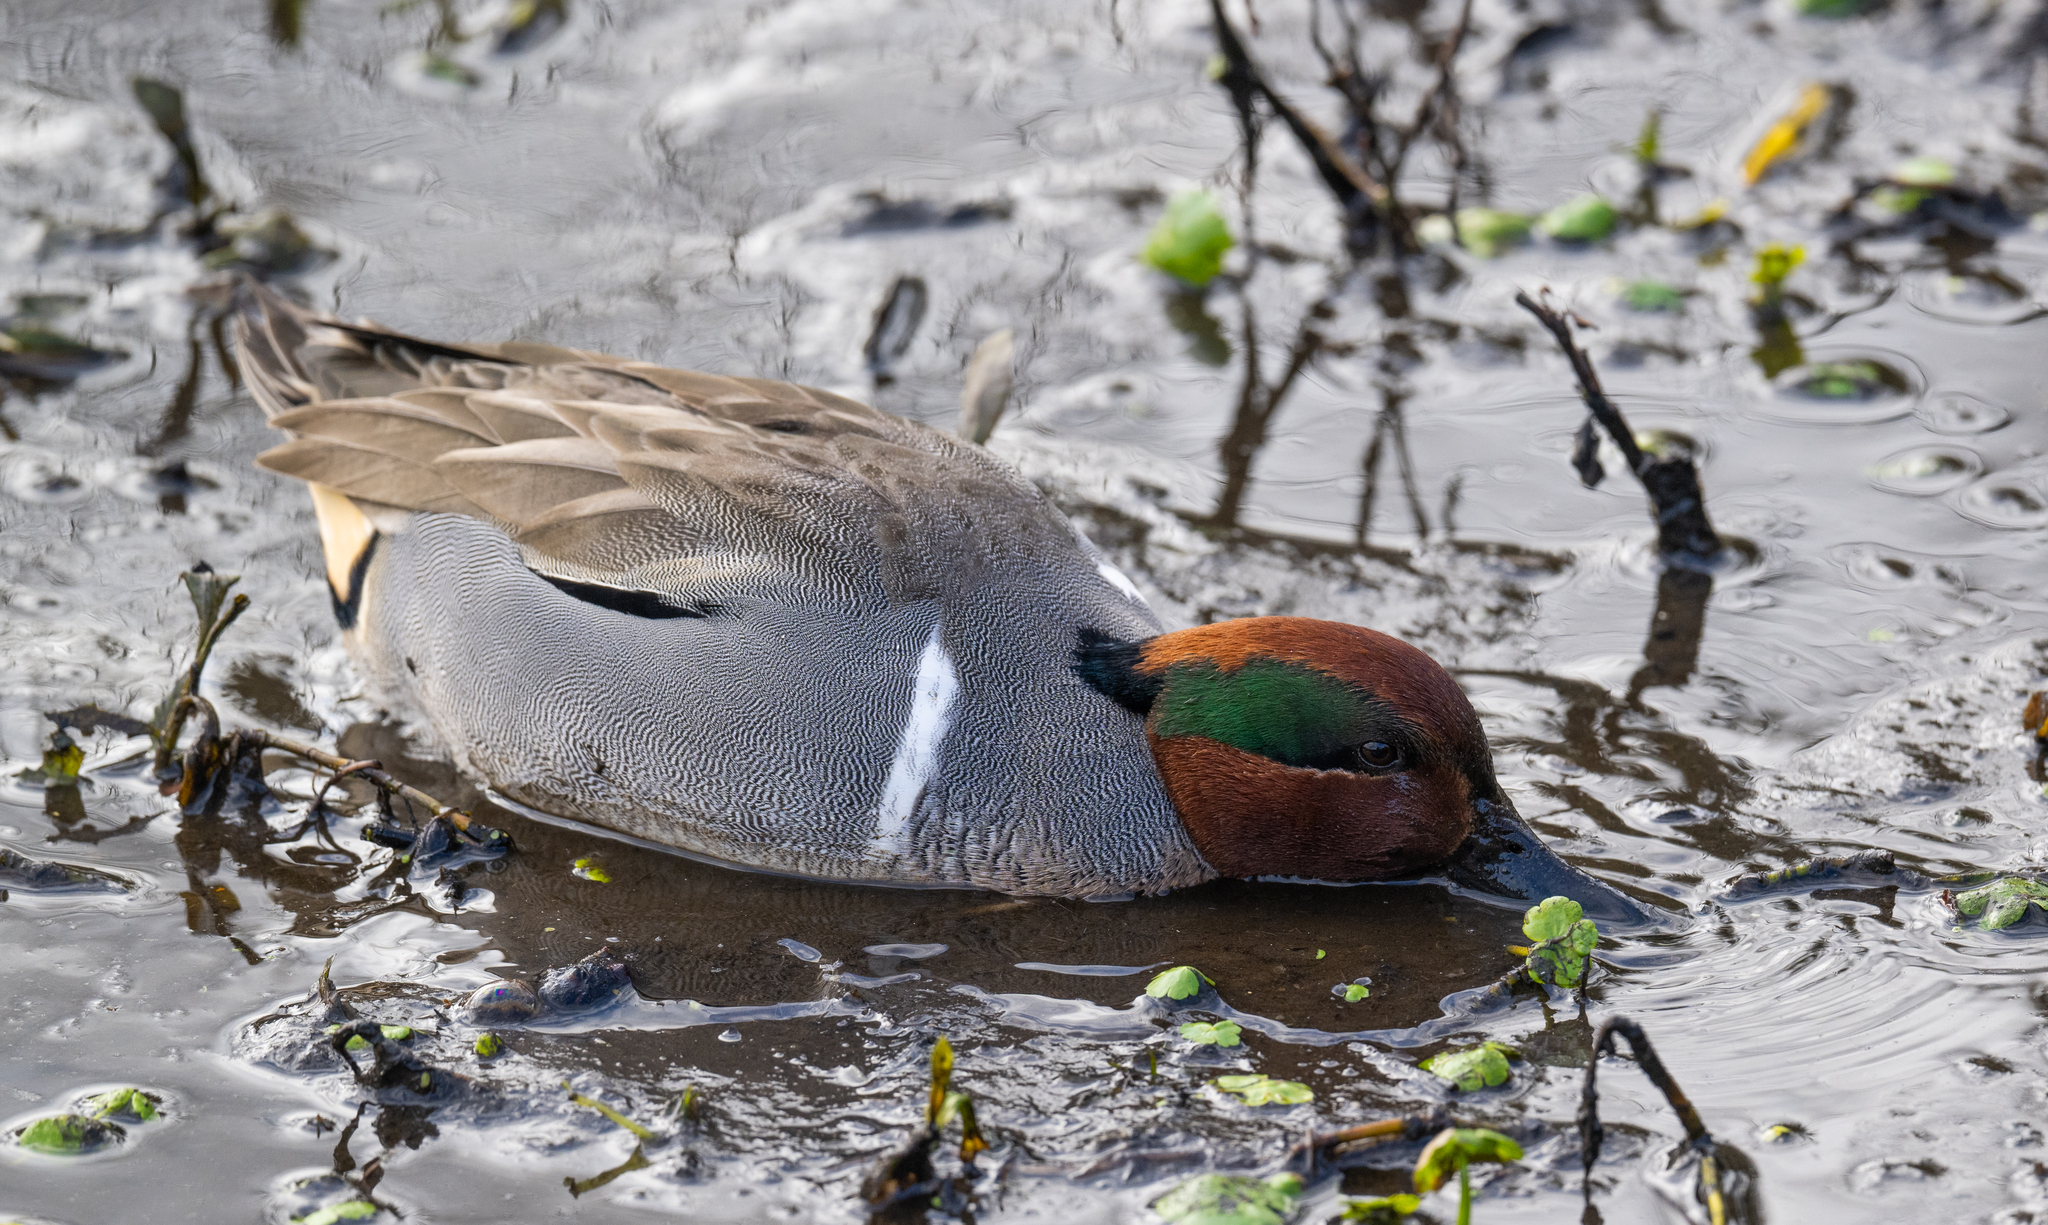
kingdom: Animalia
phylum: Chordata
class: Aves
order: Anseriformes
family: Anatidae
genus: Anas
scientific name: Anas crecca
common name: Eurasian teal
